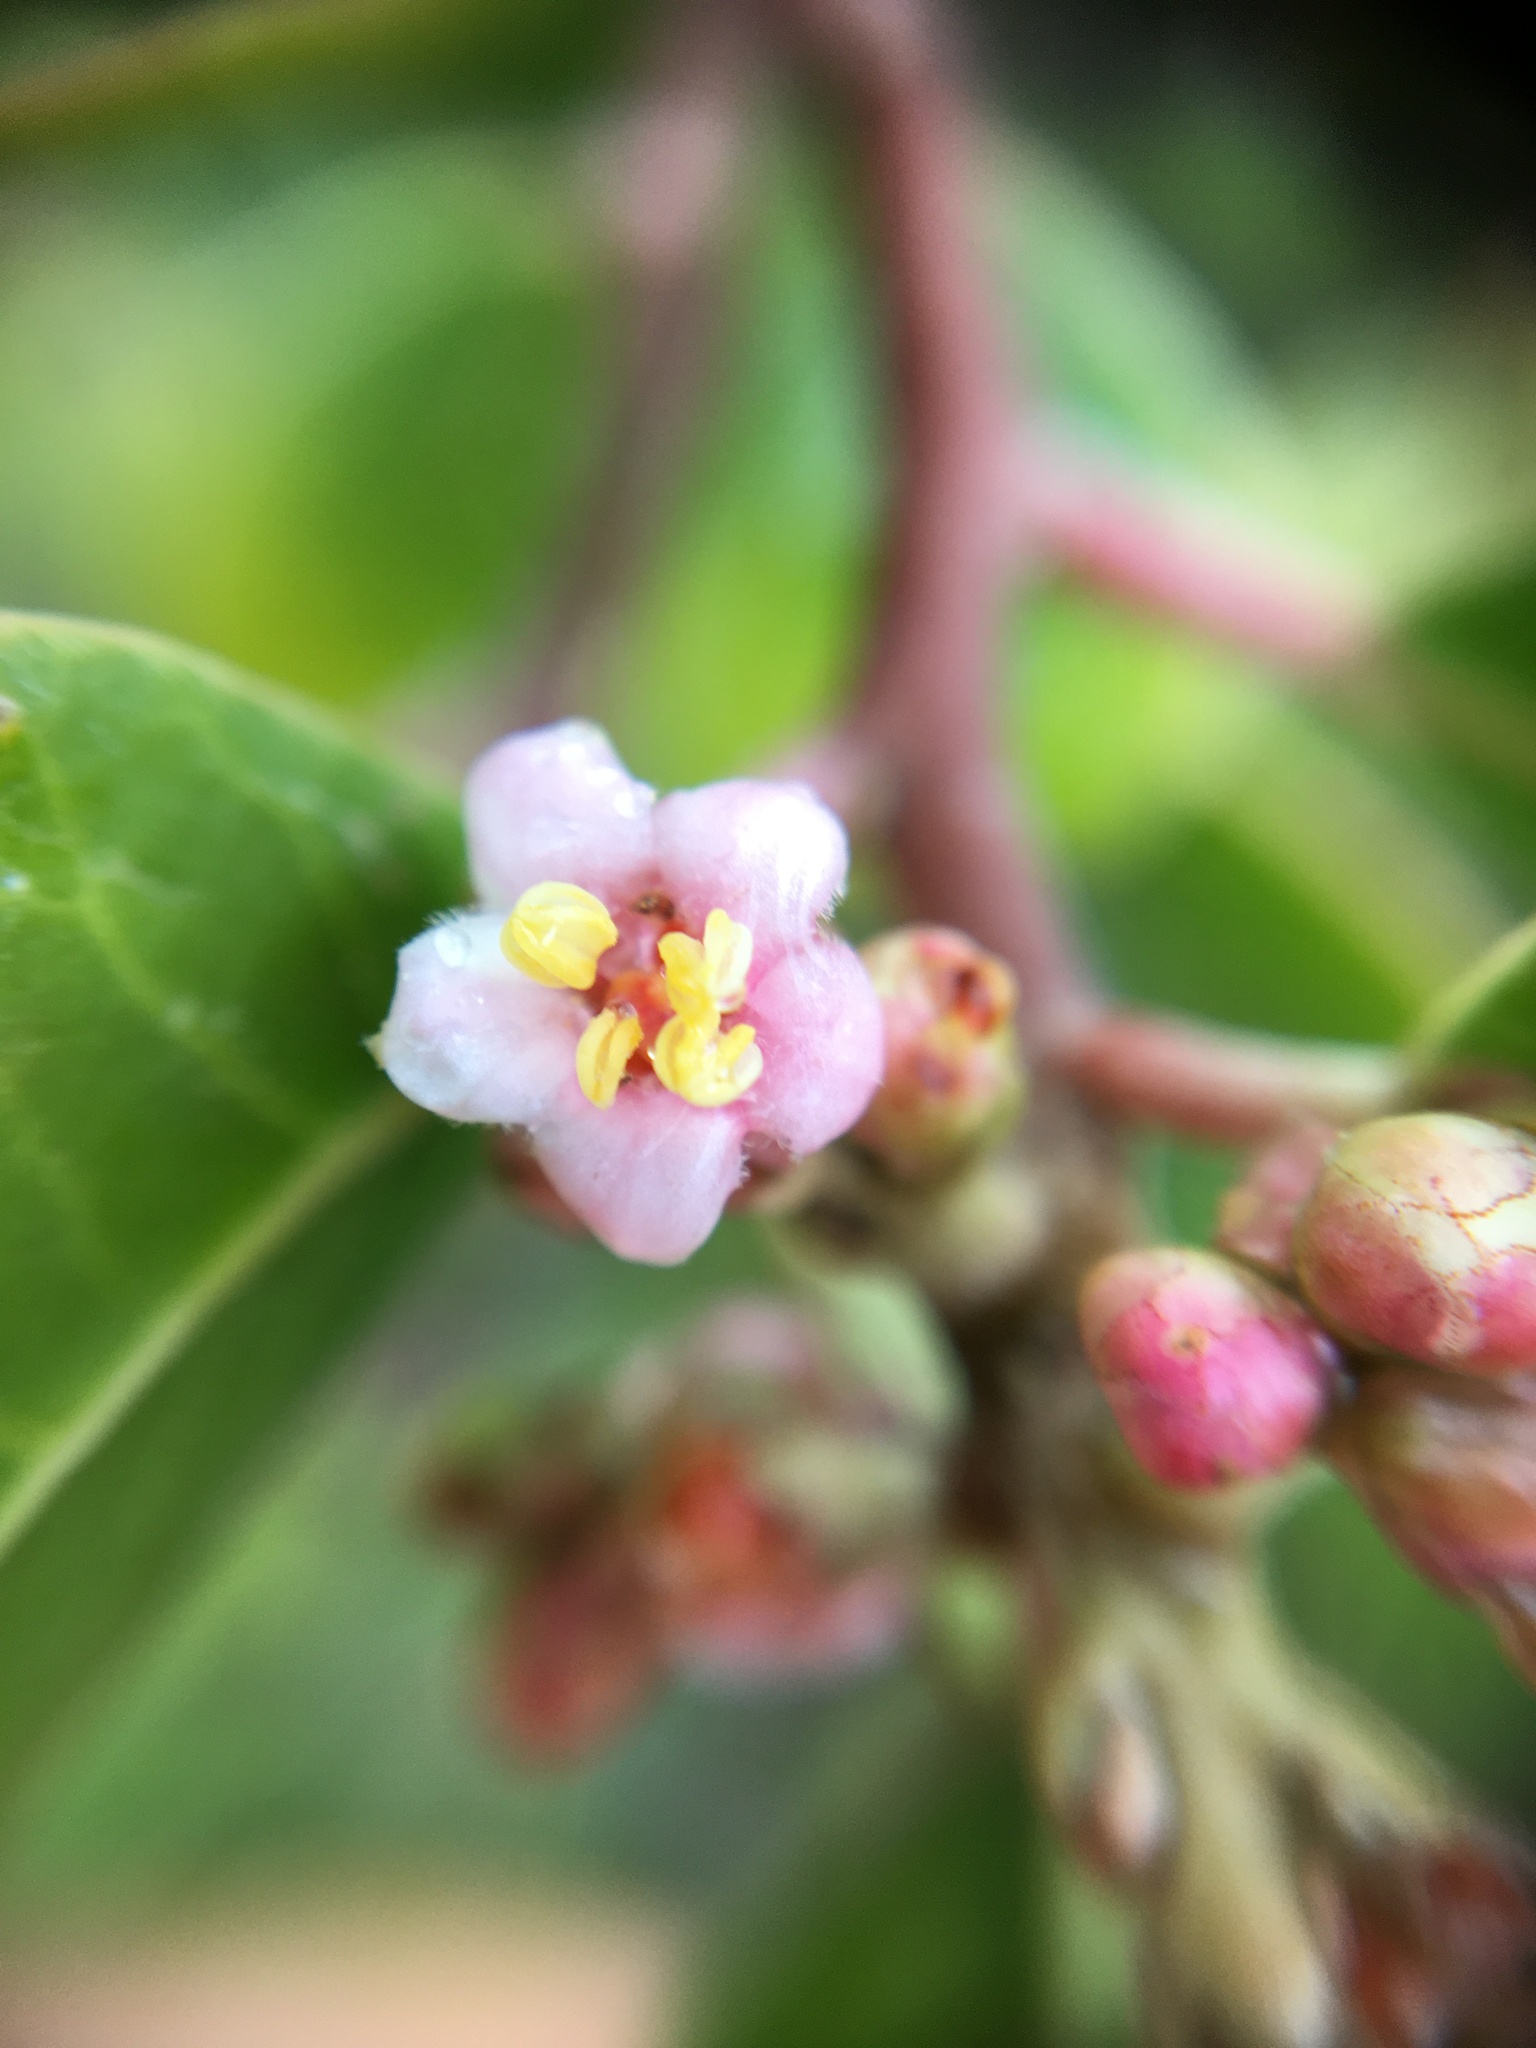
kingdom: Plantae
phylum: Tracheophyta
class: Magnoliopsida
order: Sapindales
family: Anacardiaceae
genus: Rhus
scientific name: Rhus integrifolia
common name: Lemonade sumac
